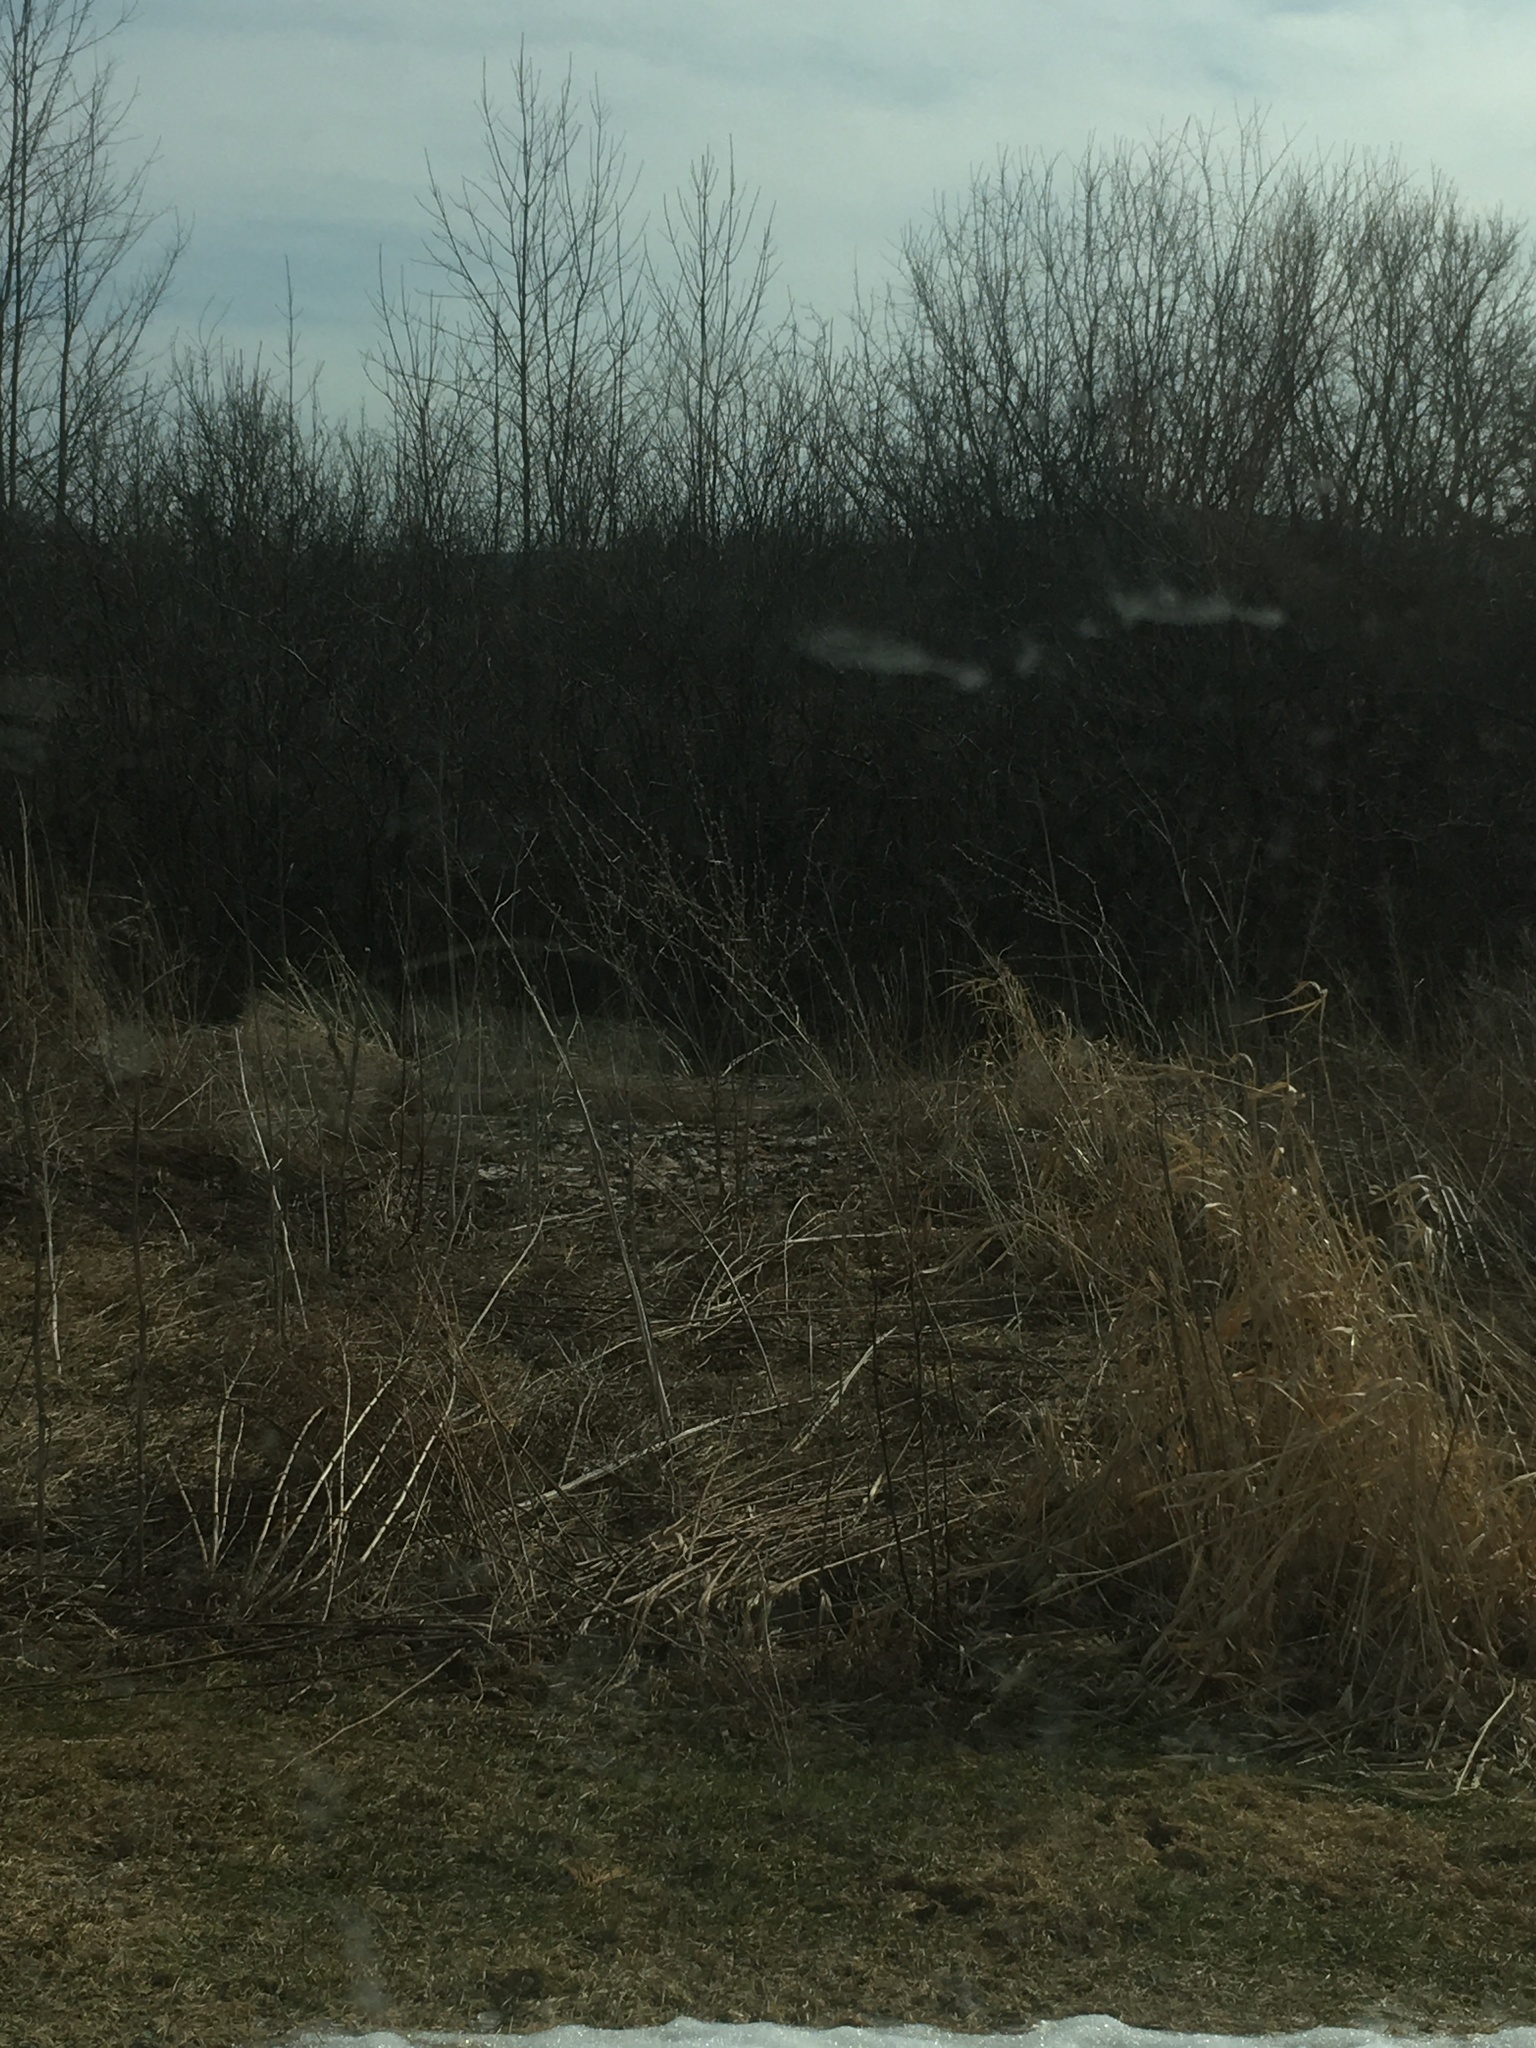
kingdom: Plantae
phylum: Tracheophyta
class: Magnoliopsida
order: Asterales
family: Asteraceae
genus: Cichorium
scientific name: Cichorium intybus
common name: Chicory
